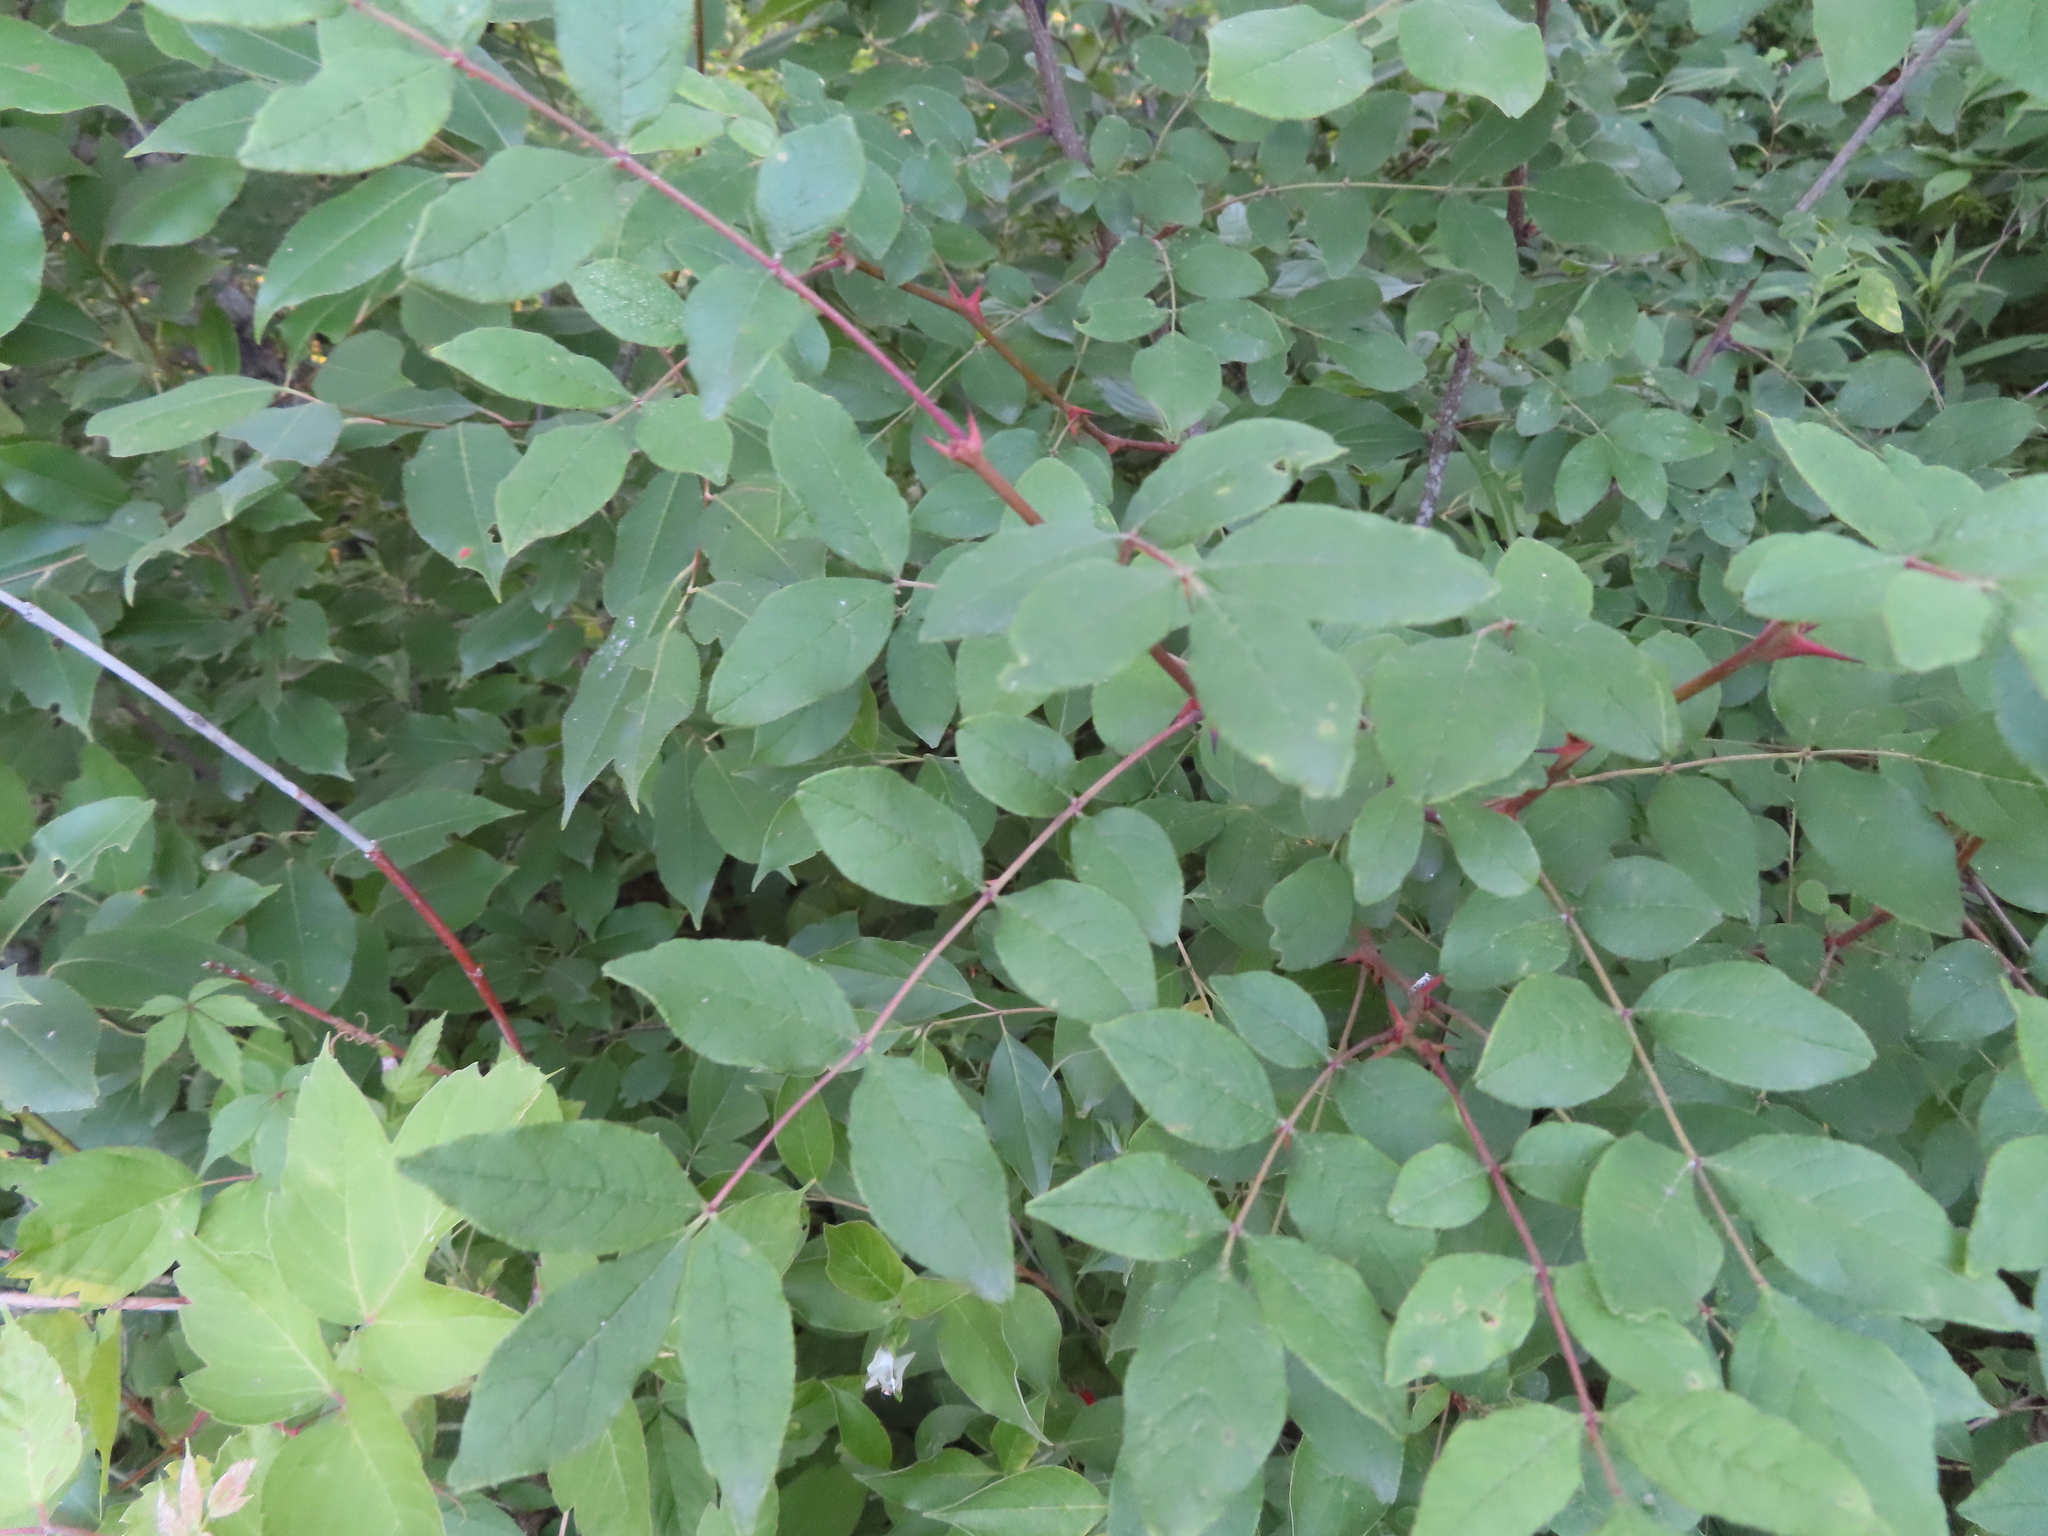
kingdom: Plantae
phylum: Tracheophyta
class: Magnoliopsida
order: Sapindales
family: Rutaceae
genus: Zanthoxylum
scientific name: Zanthoxylum americanum
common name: Northern prickly-ash
